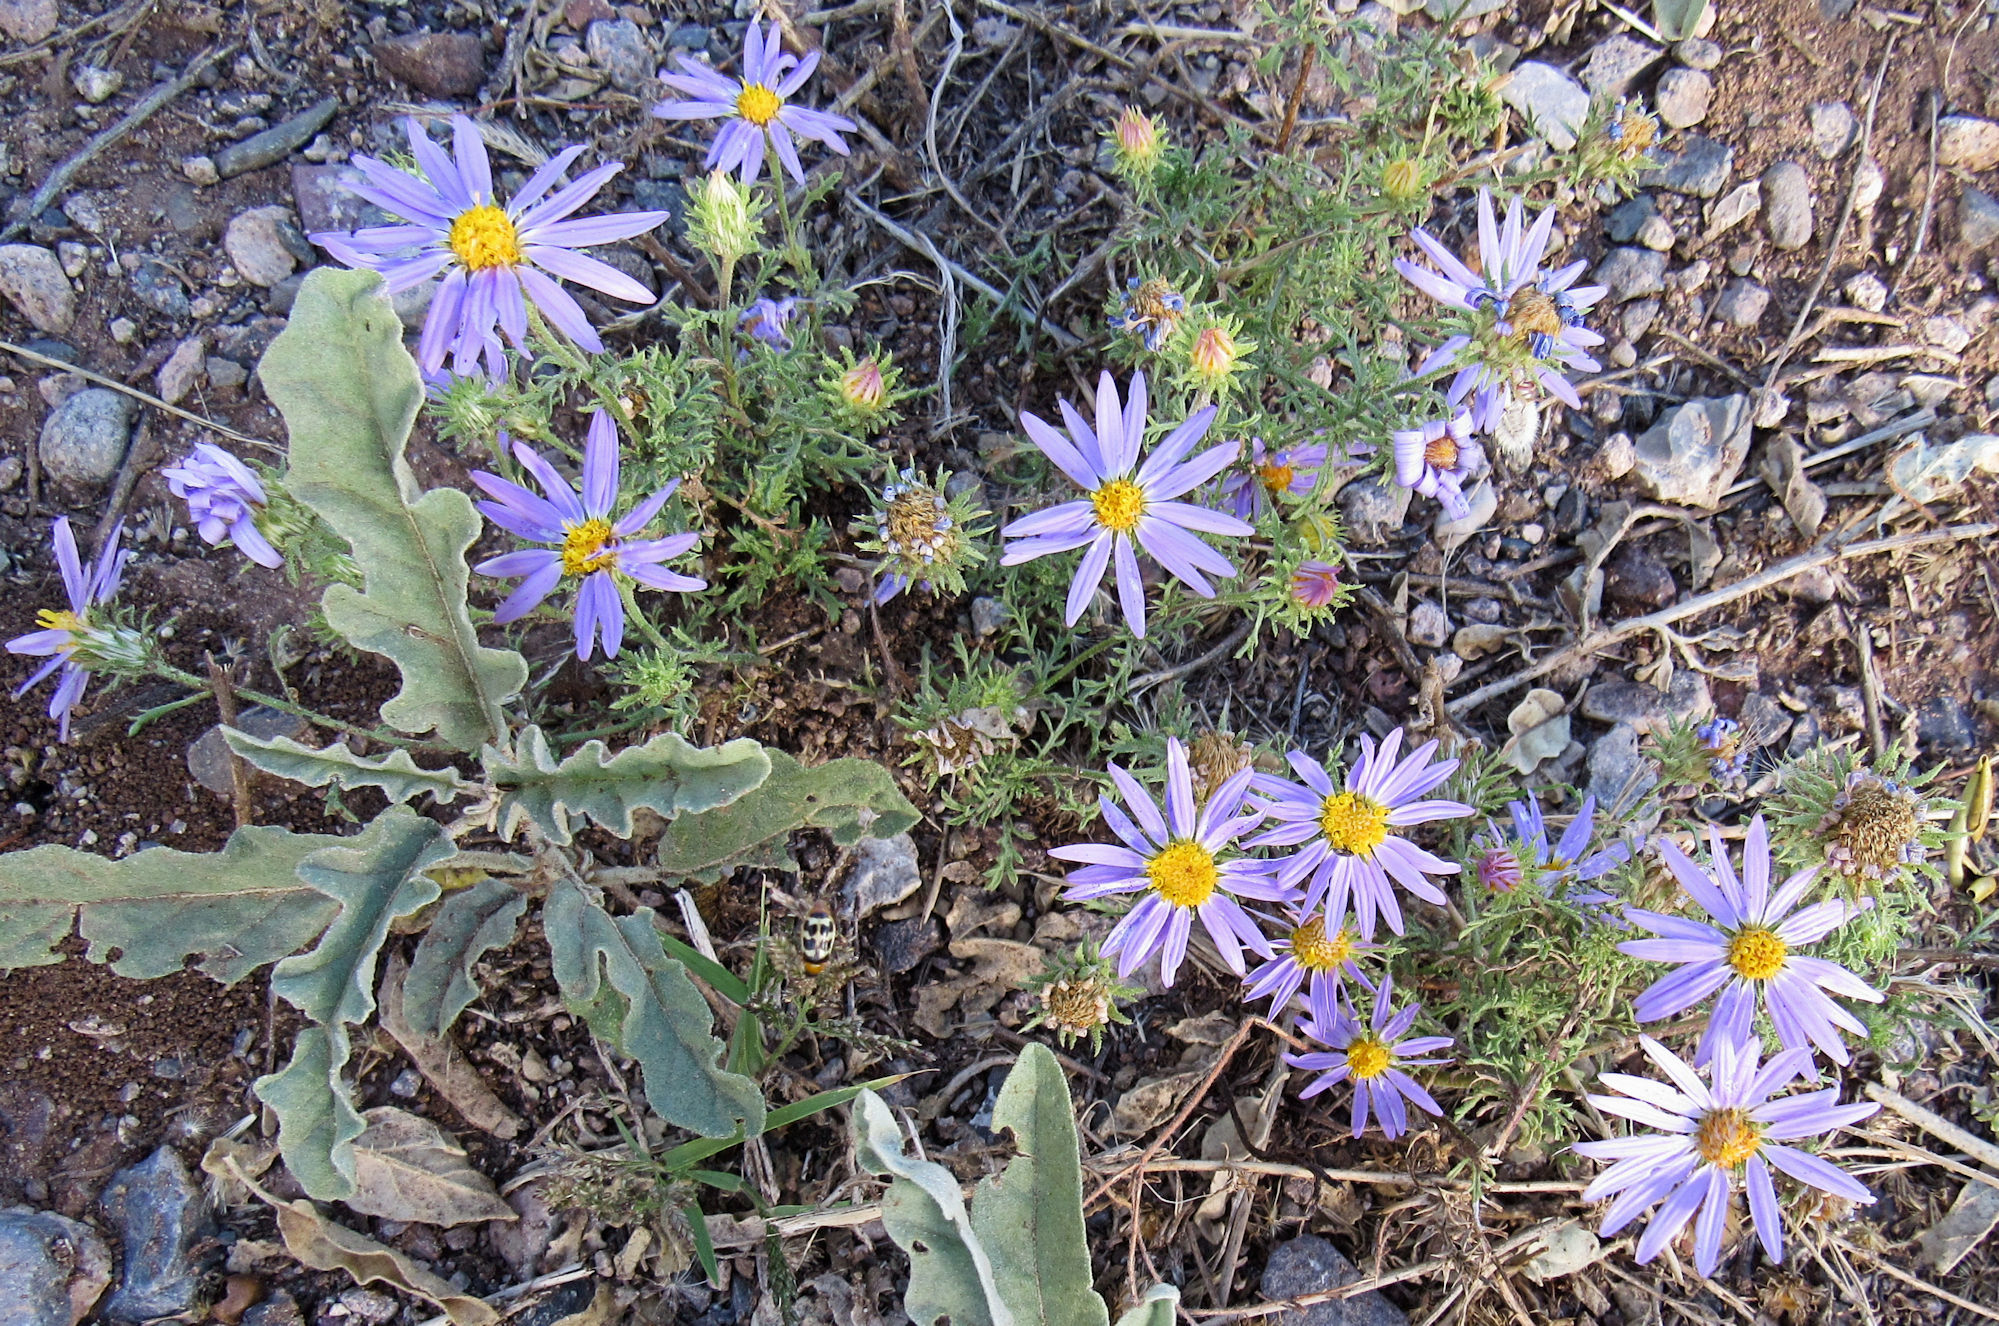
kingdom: Plantae
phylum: Tracheophyta
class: Magnoliopsida
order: Asterales
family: Asteraceae
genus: Machaeranthera
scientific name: Machaeranthera tanacetifolia
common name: Tansy-aster
